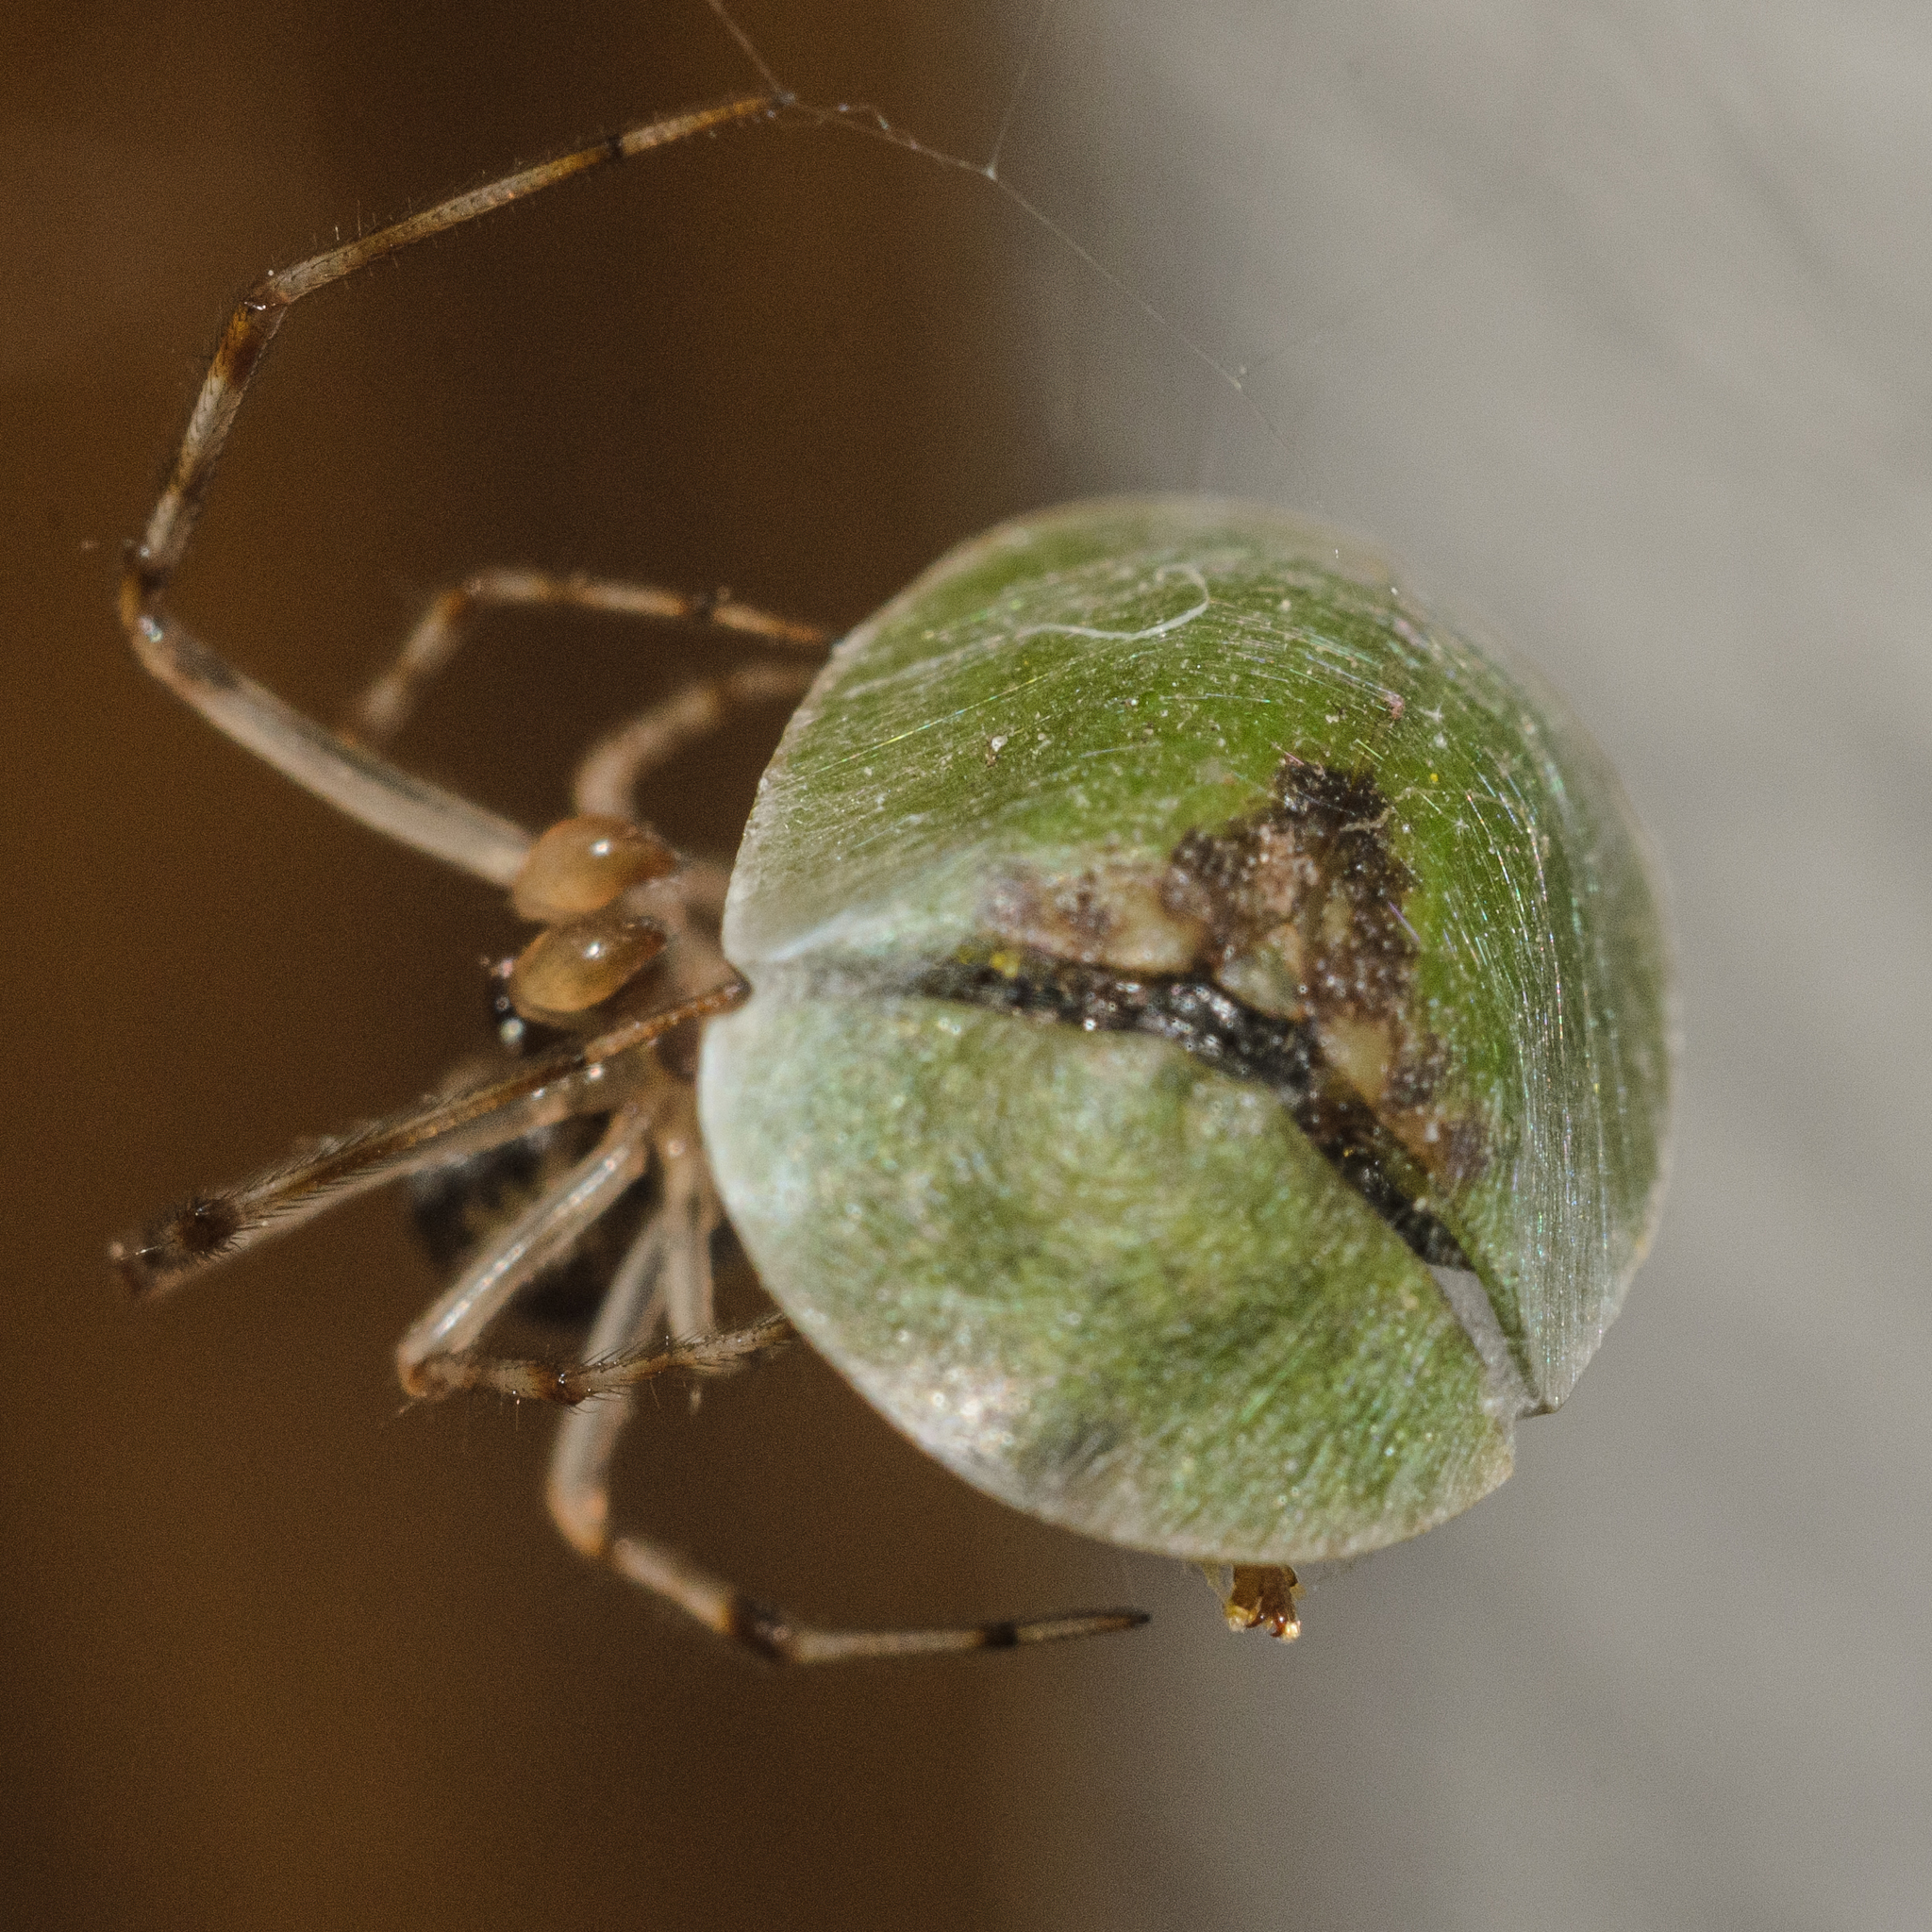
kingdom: Animalia
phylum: Arthropoda
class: Insecta
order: Coleoptera
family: Chrysomelidae
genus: Cassida
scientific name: Cassida rubiginosa
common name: Thistle tortoise beetle
